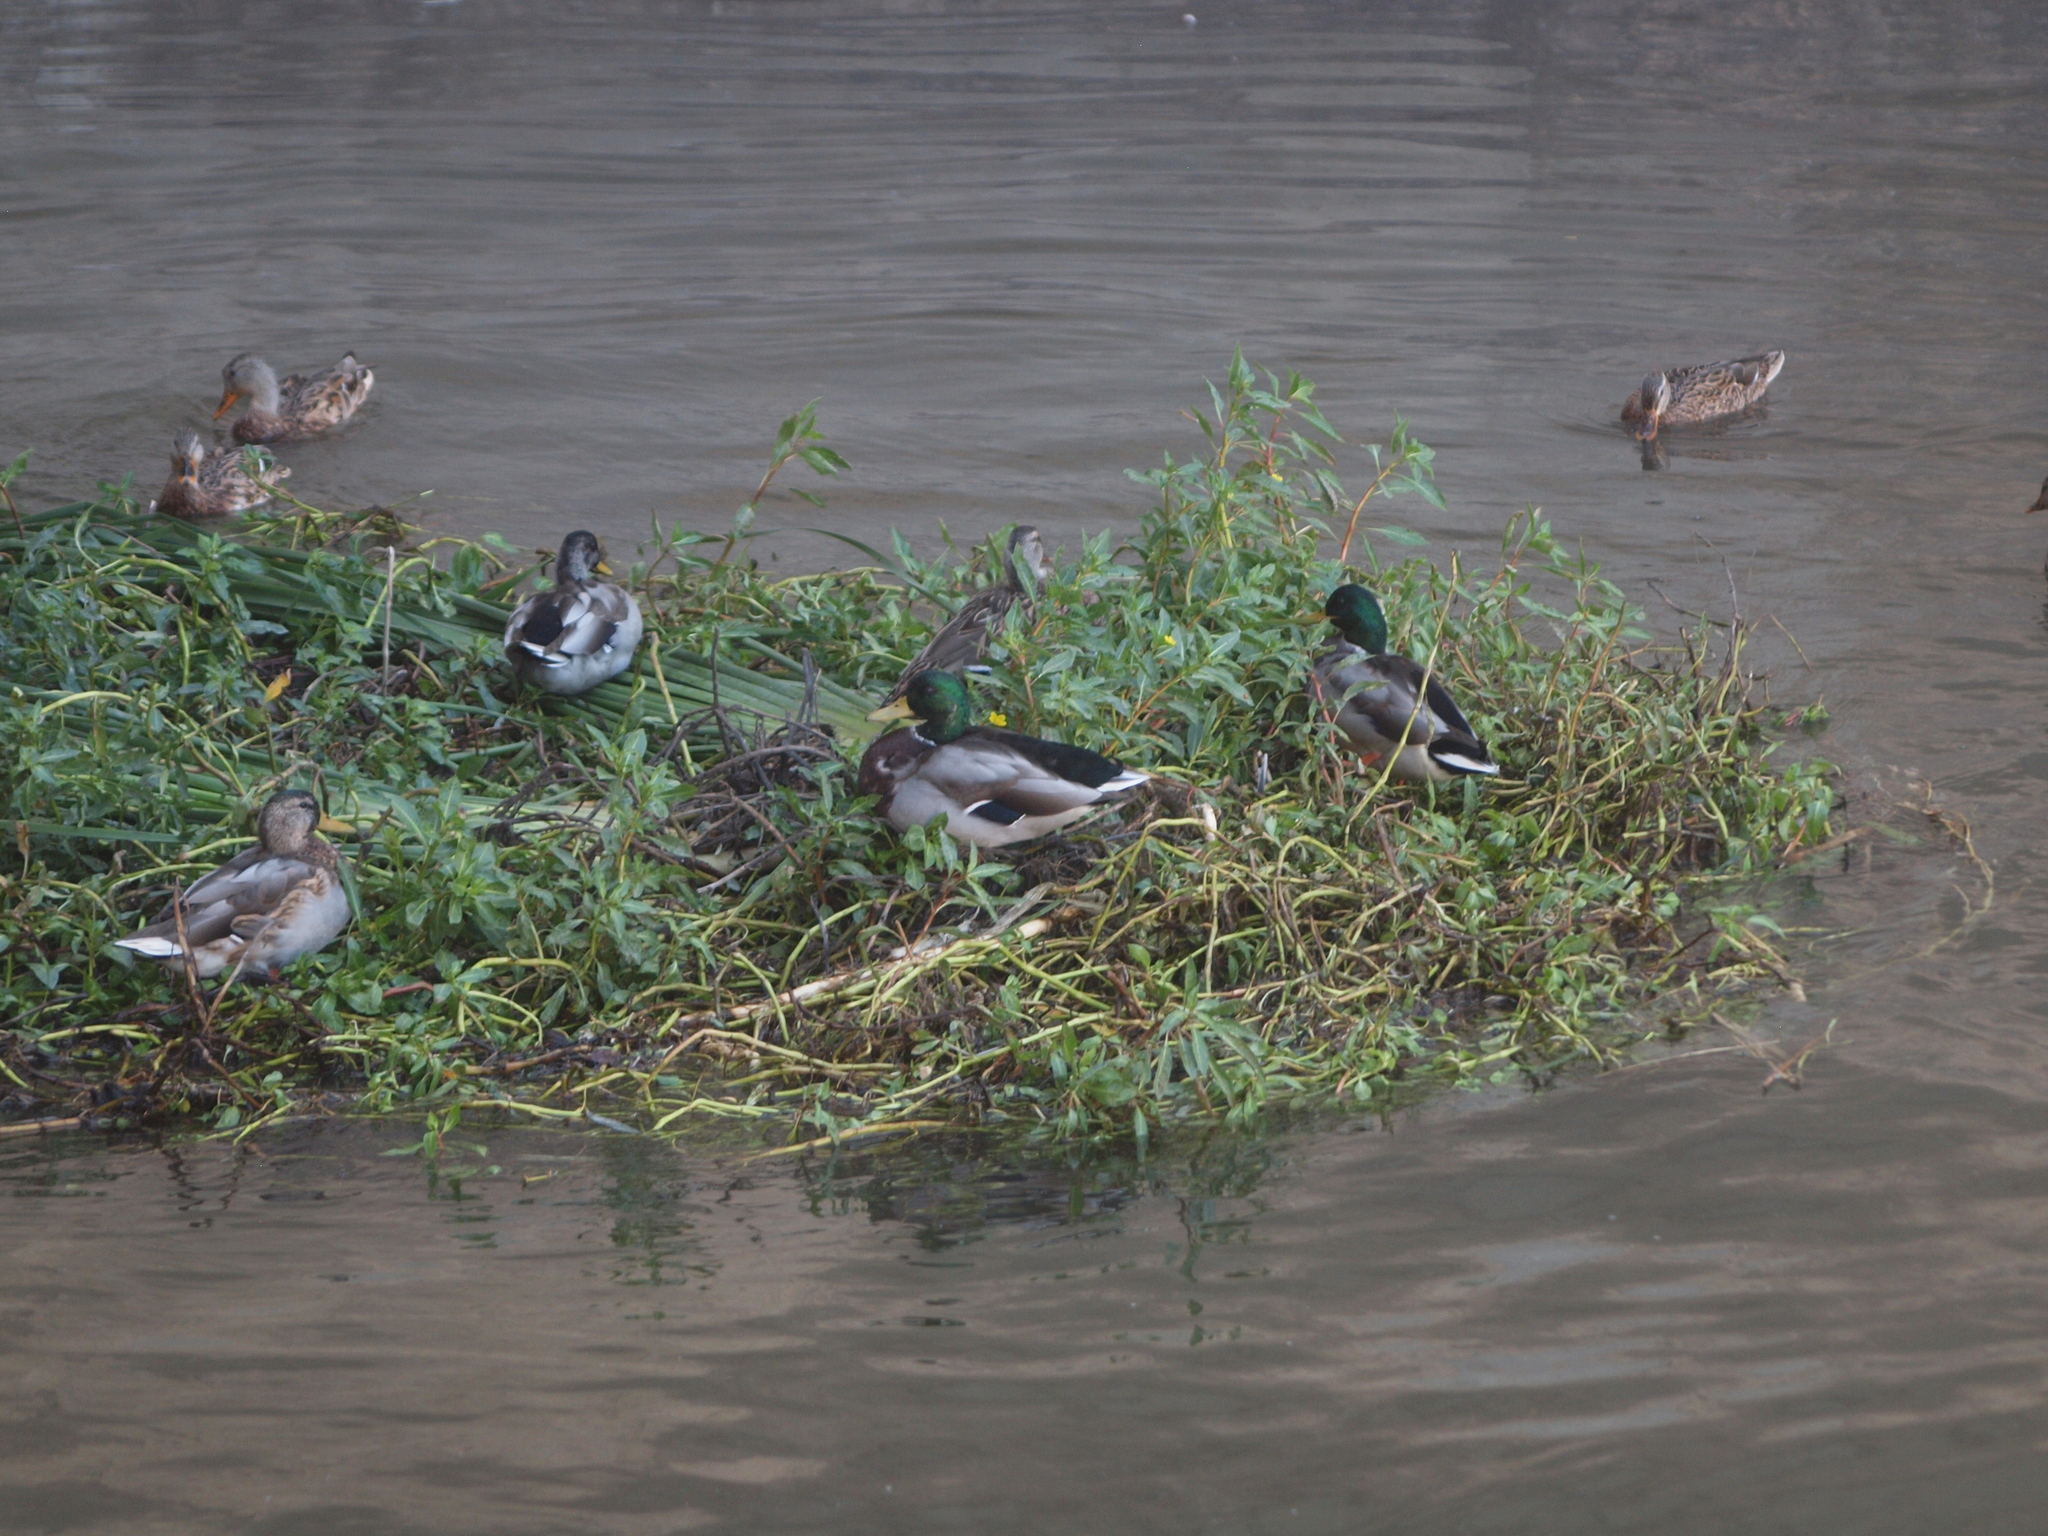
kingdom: Animalia
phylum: Chordata
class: Aves
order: Anseriformes
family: Anatidae
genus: Anas
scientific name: Anas platyrhynchos
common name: Mallard
